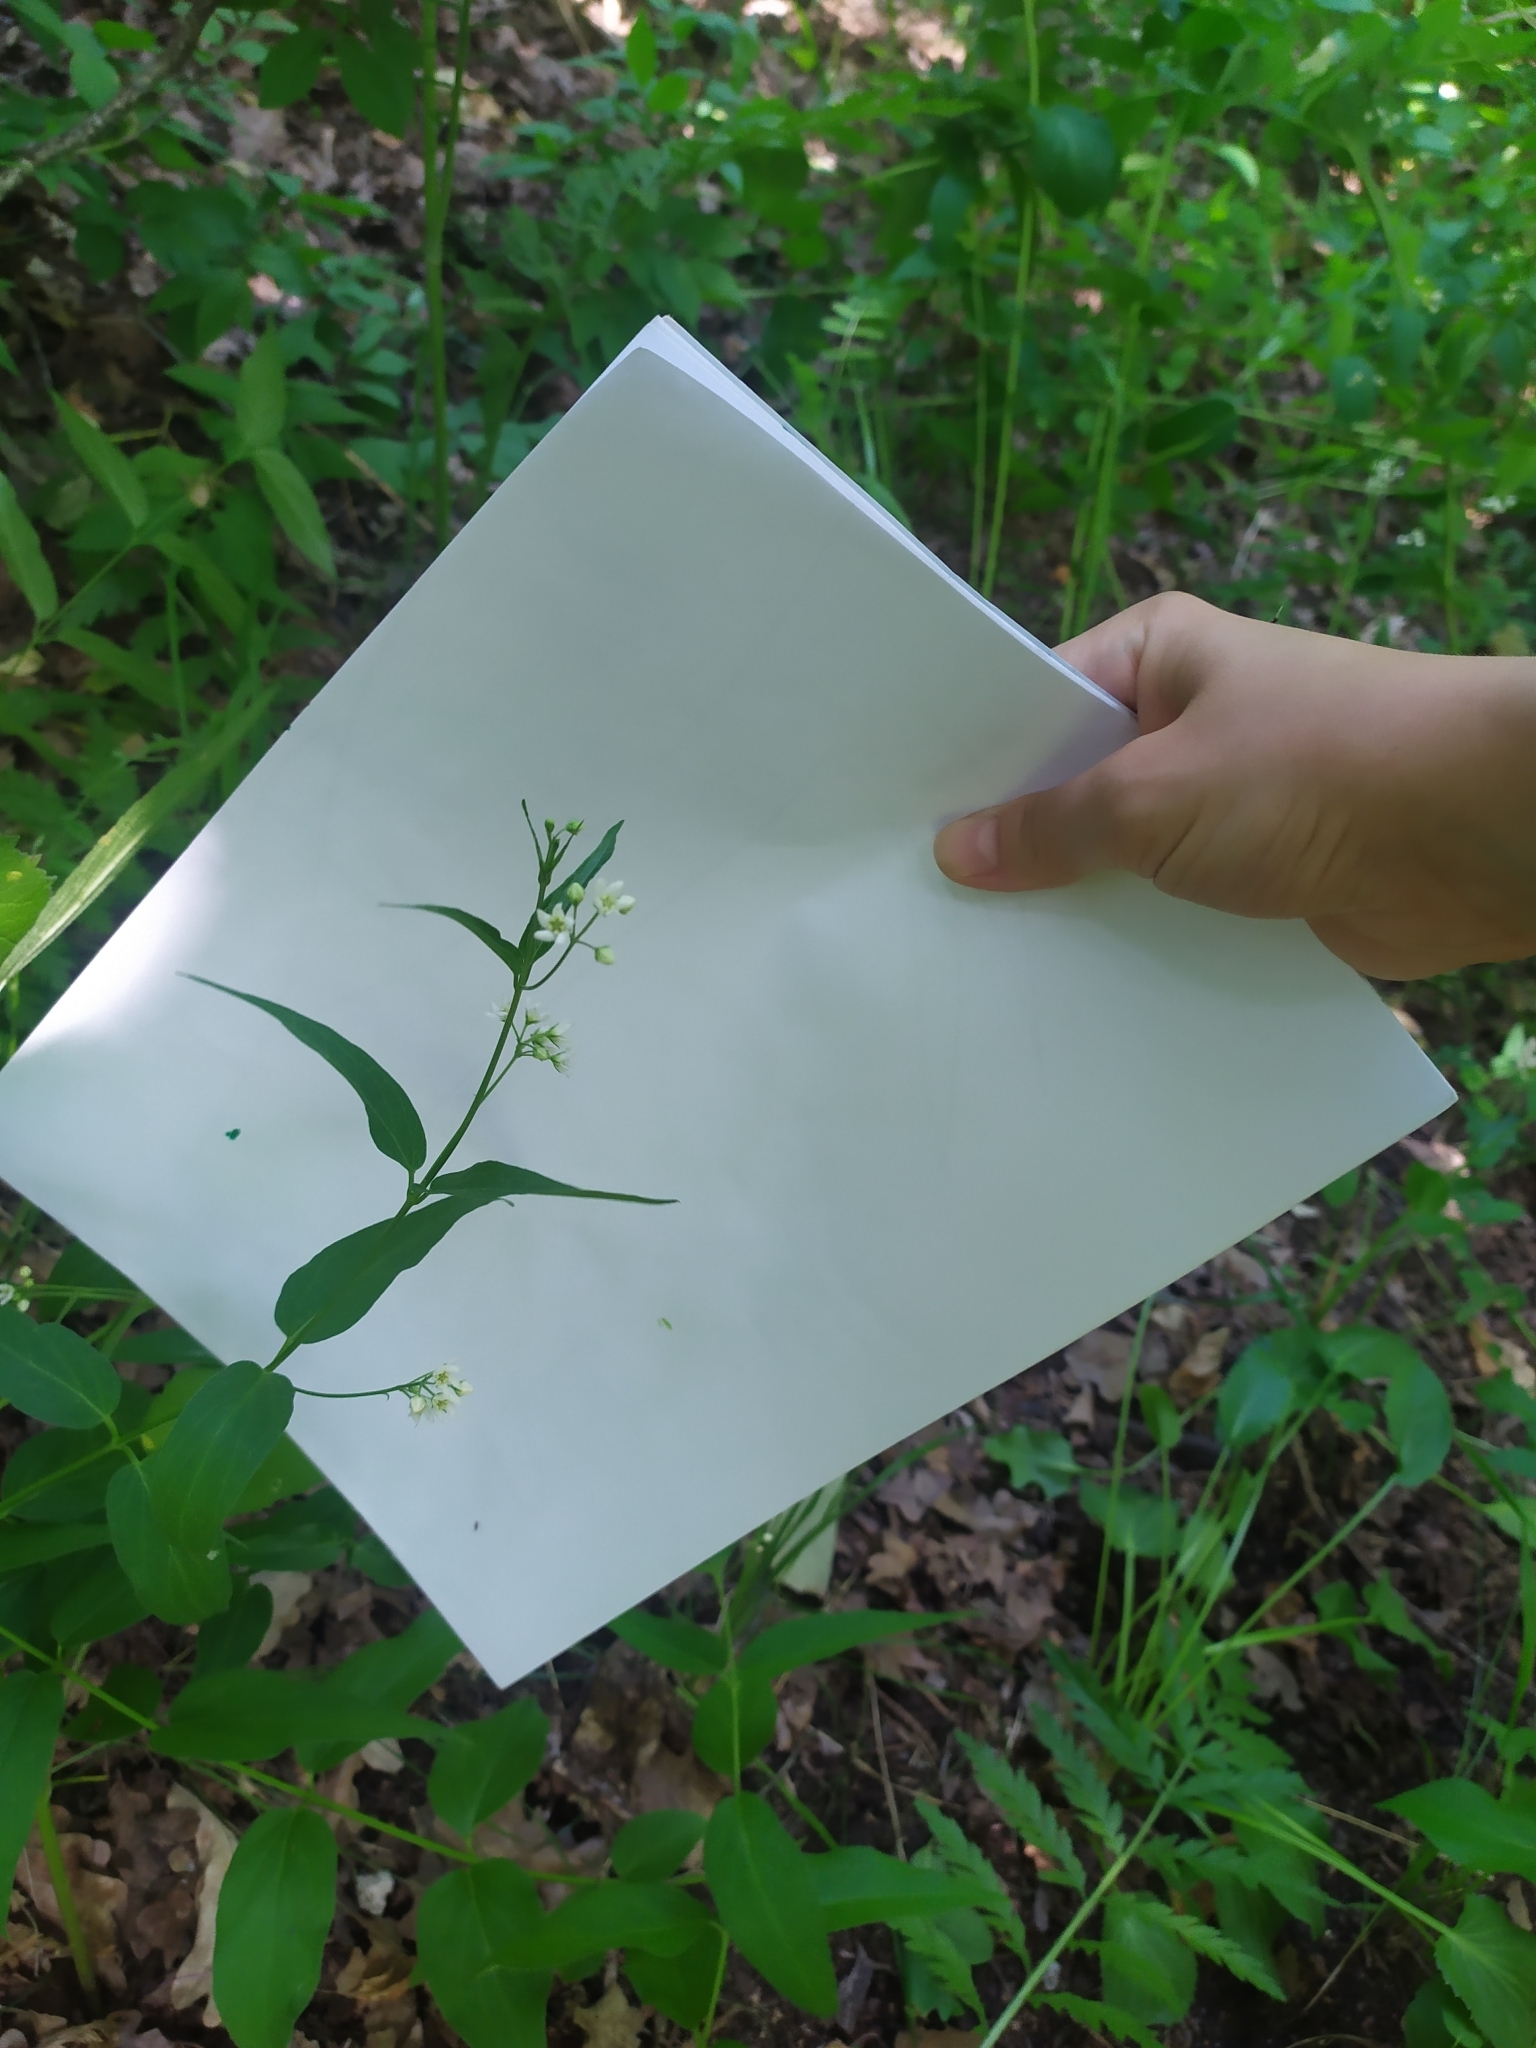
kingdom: Plantae
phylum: Tracheophyta
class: Magnoliopsida
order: Gentianales
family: Apocynaceae
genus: Vincetoxicum
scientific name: Vincetoxicum hirundinaria
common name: White swallowwort
